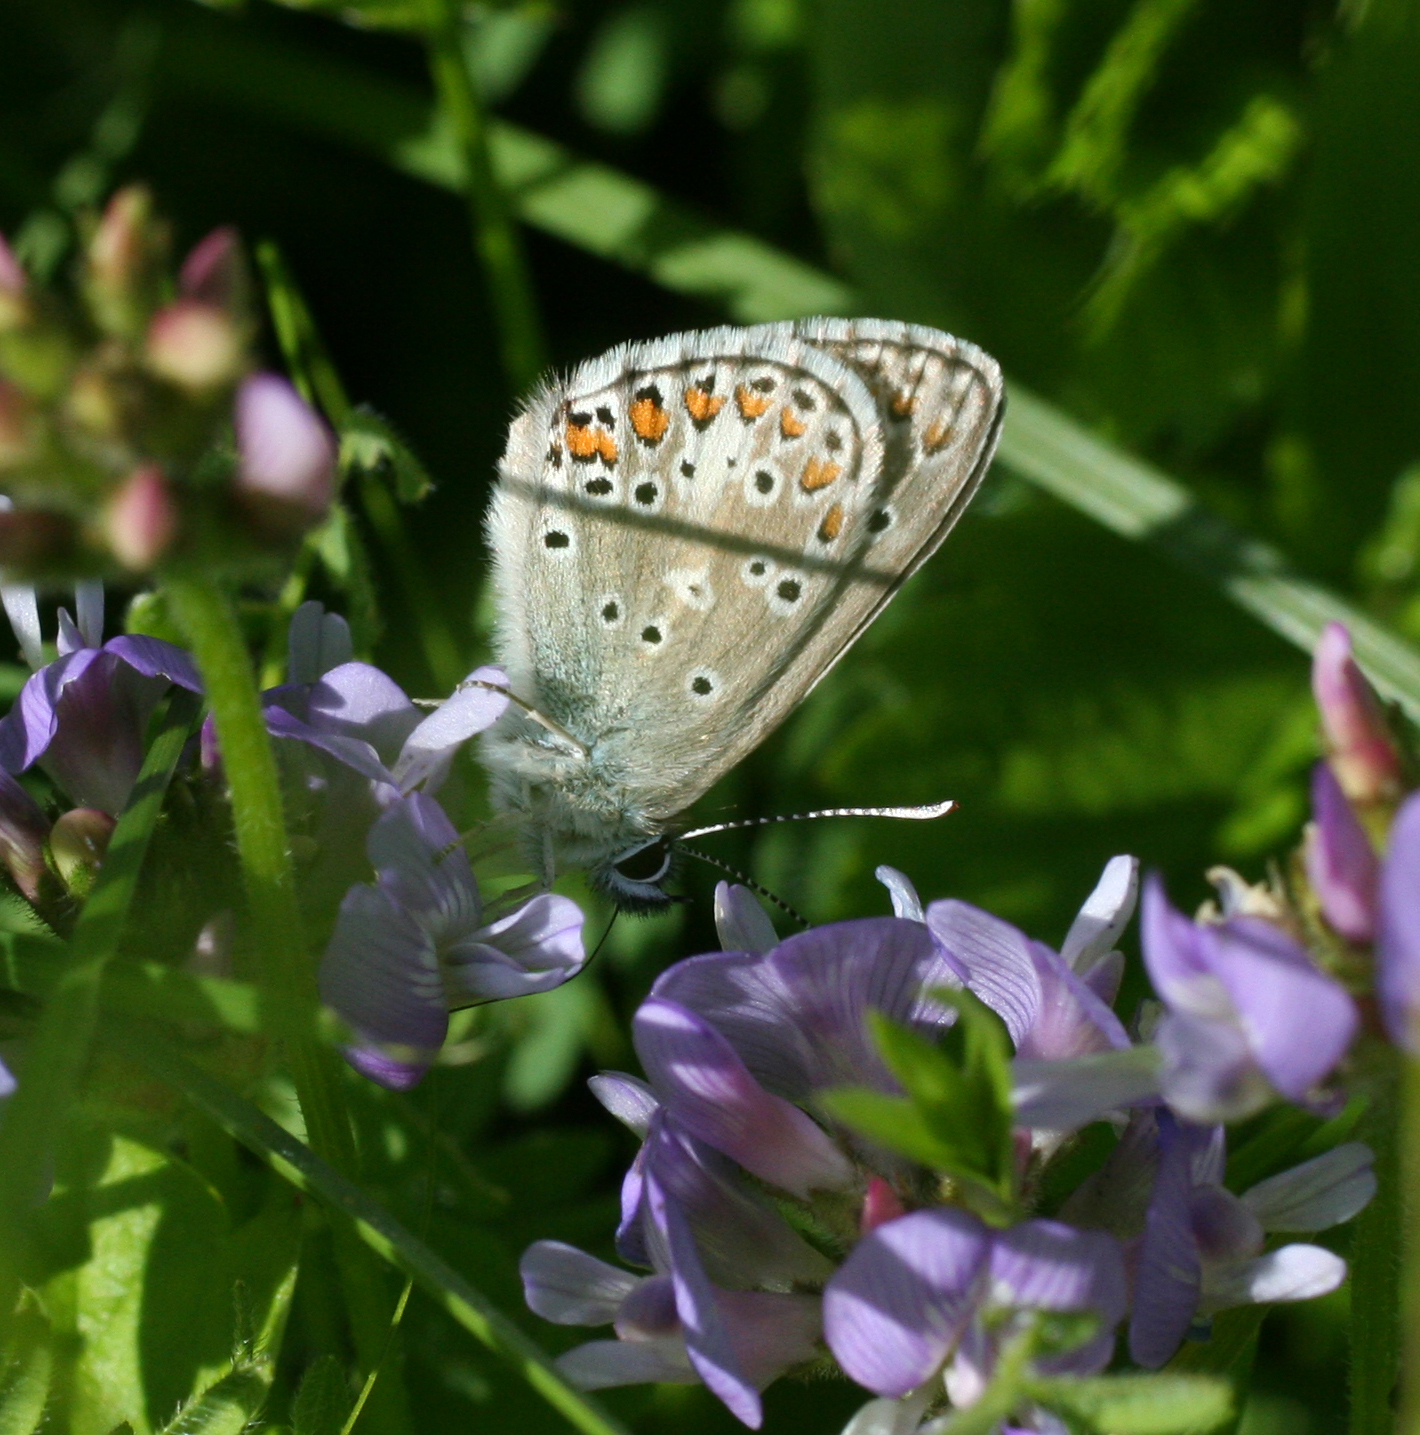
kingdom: Animalia
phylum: Arthropoda
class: Insecta
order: Lepidoptera
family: Lycaenidae
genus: Aricia
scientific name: Aricia artaxerxes
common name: Northern brown argus
